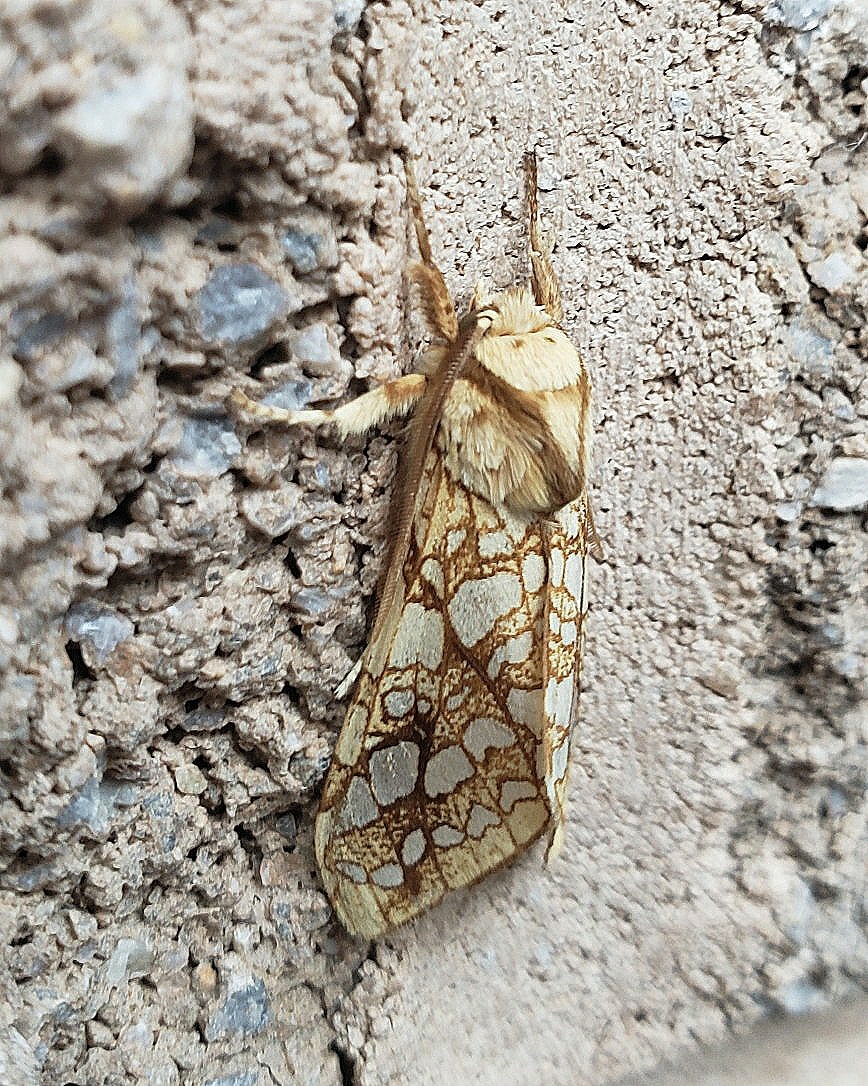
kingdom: Animalia
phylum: Arthropoda
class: Insecta
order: Lepidoptera
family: Erebidae
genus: Lophocampa
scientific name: Lophocampa caryae
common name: Hickory tussock moth
